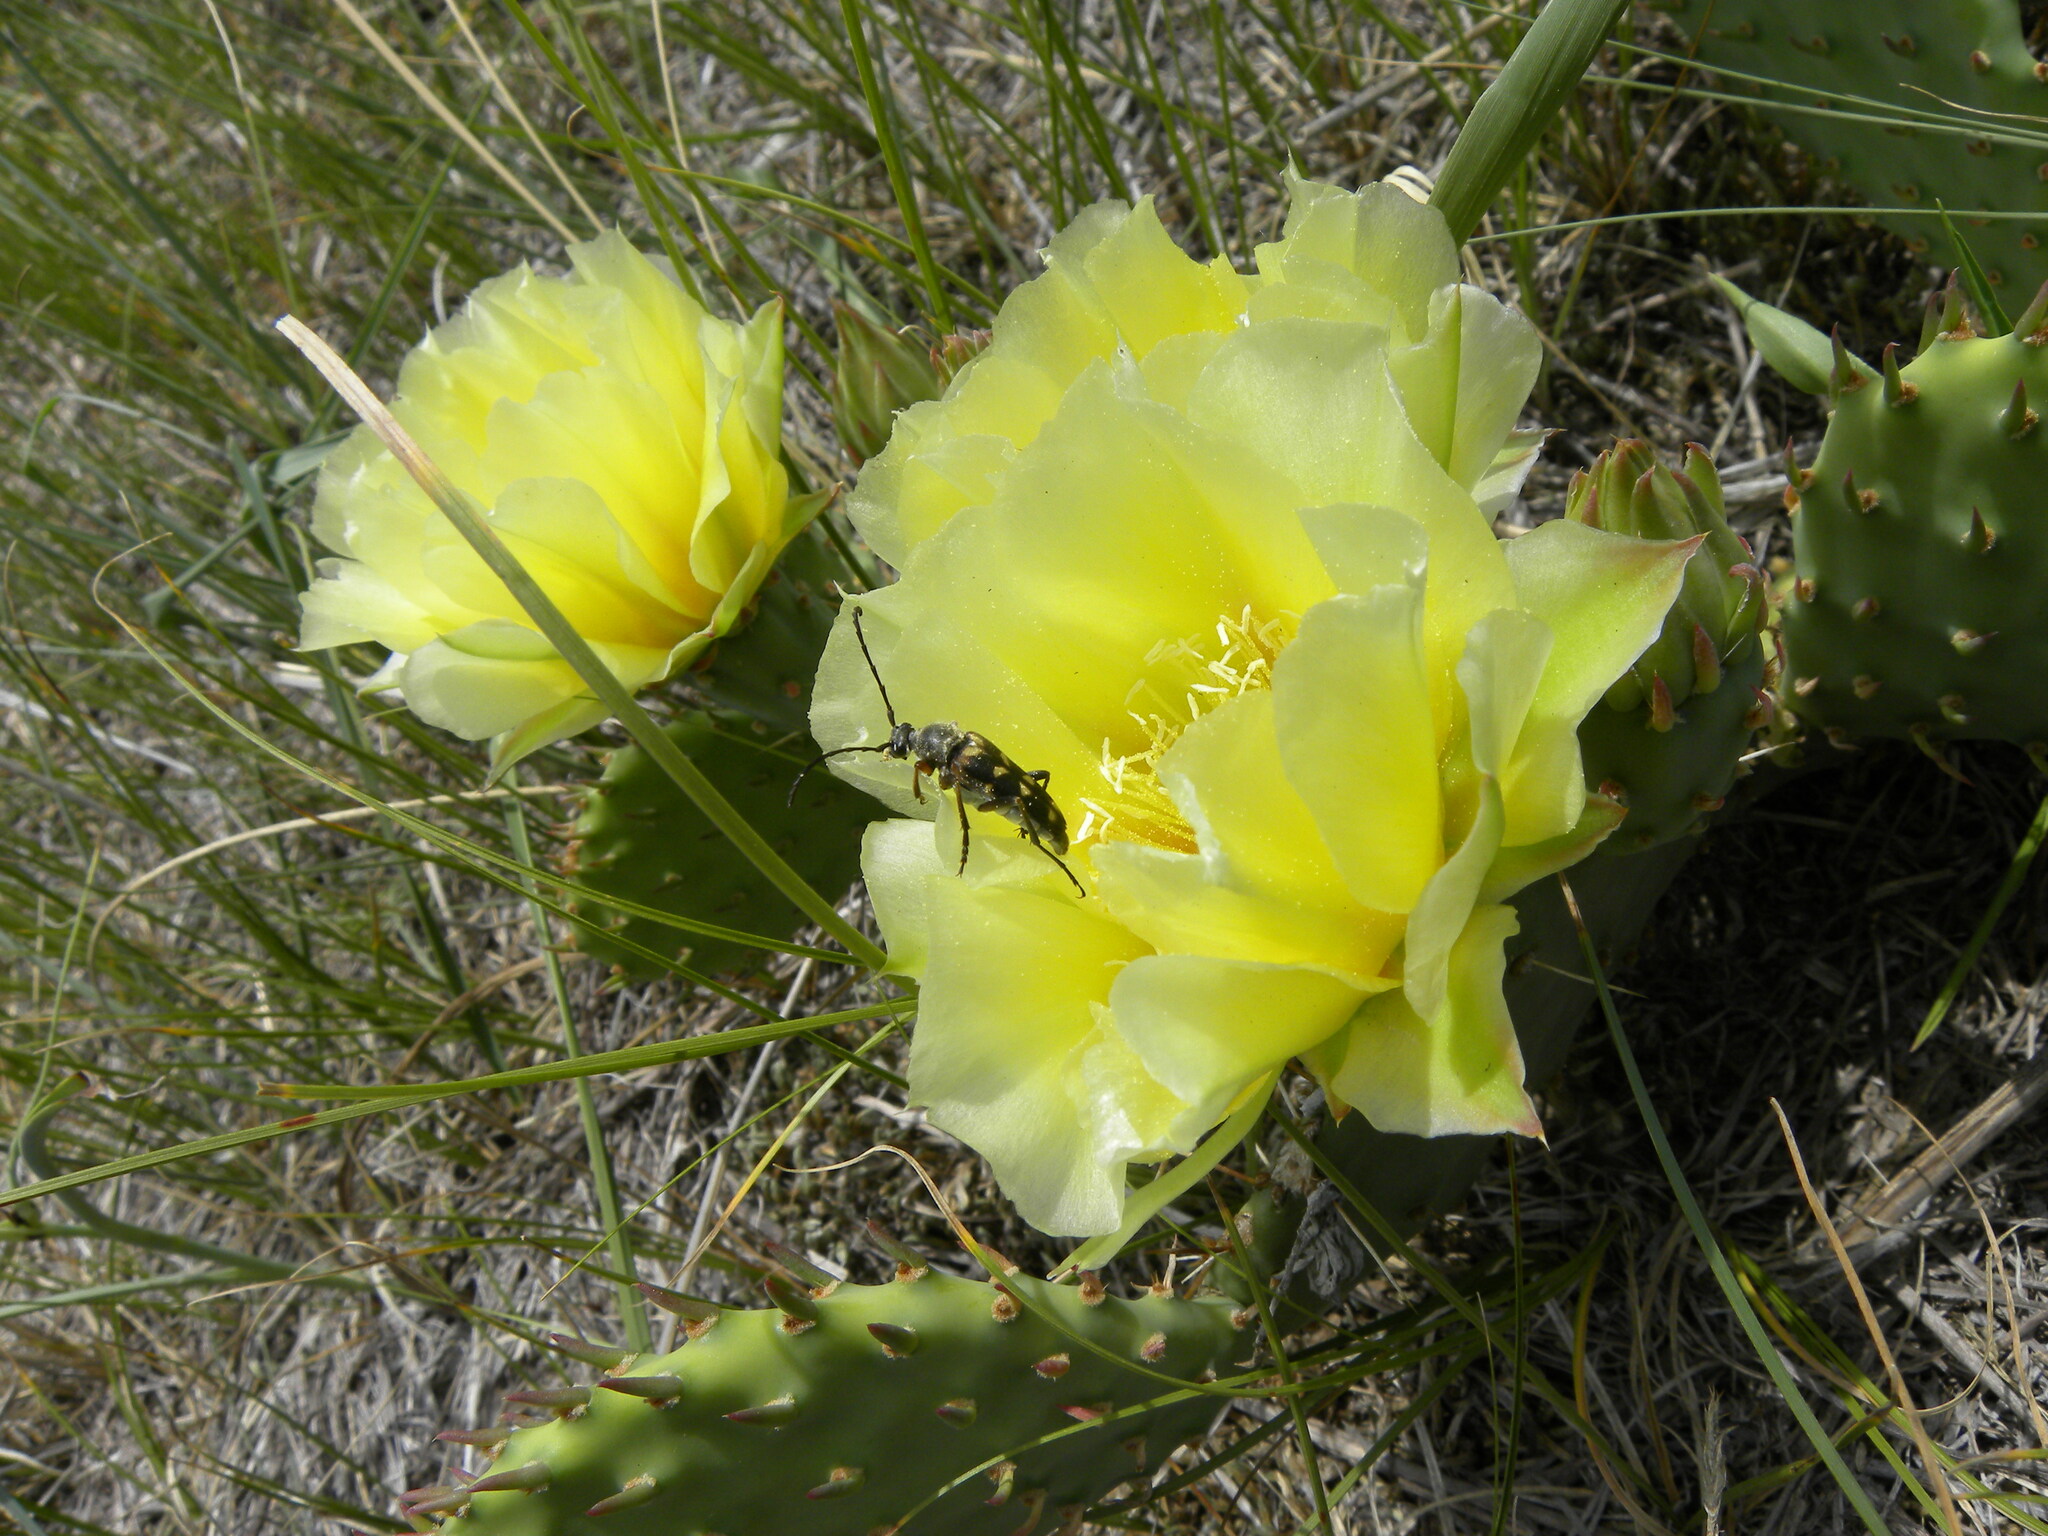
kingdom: Plantae
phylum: Tracheophyta
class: Magnoliopsida
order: Caryophyllales
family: Cactaceae
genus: Opuntia
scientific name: Opuntia macrorhiza
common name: Grassland pricklypear
